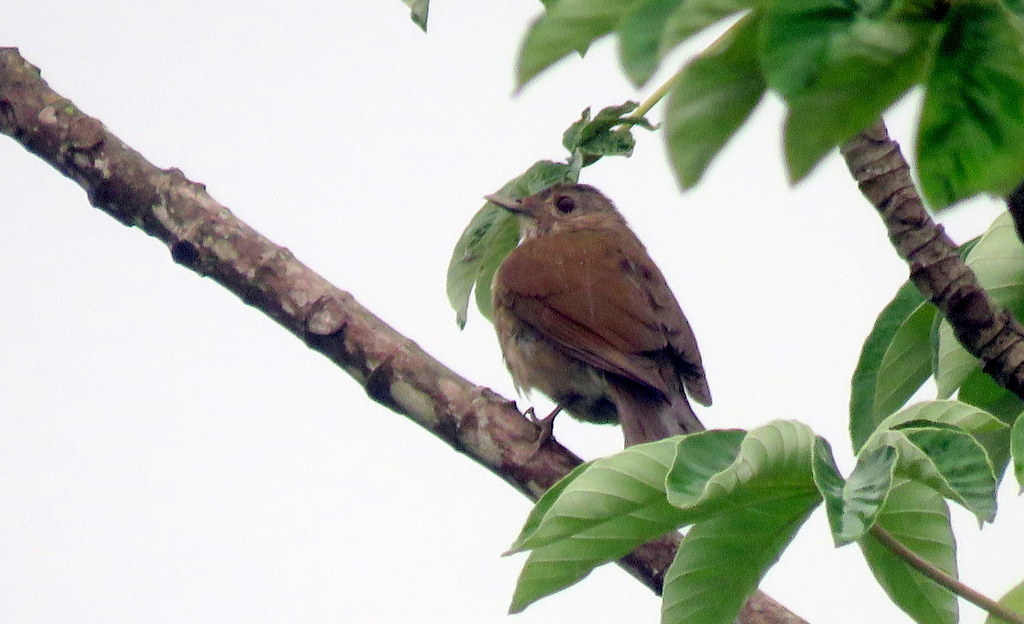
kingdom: Animalia
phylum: Chordata
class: Aves
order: Passeriformes
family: Turdidae
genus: Turdus
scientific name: Turdus leucomelas
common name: Pale-breasted thrush
